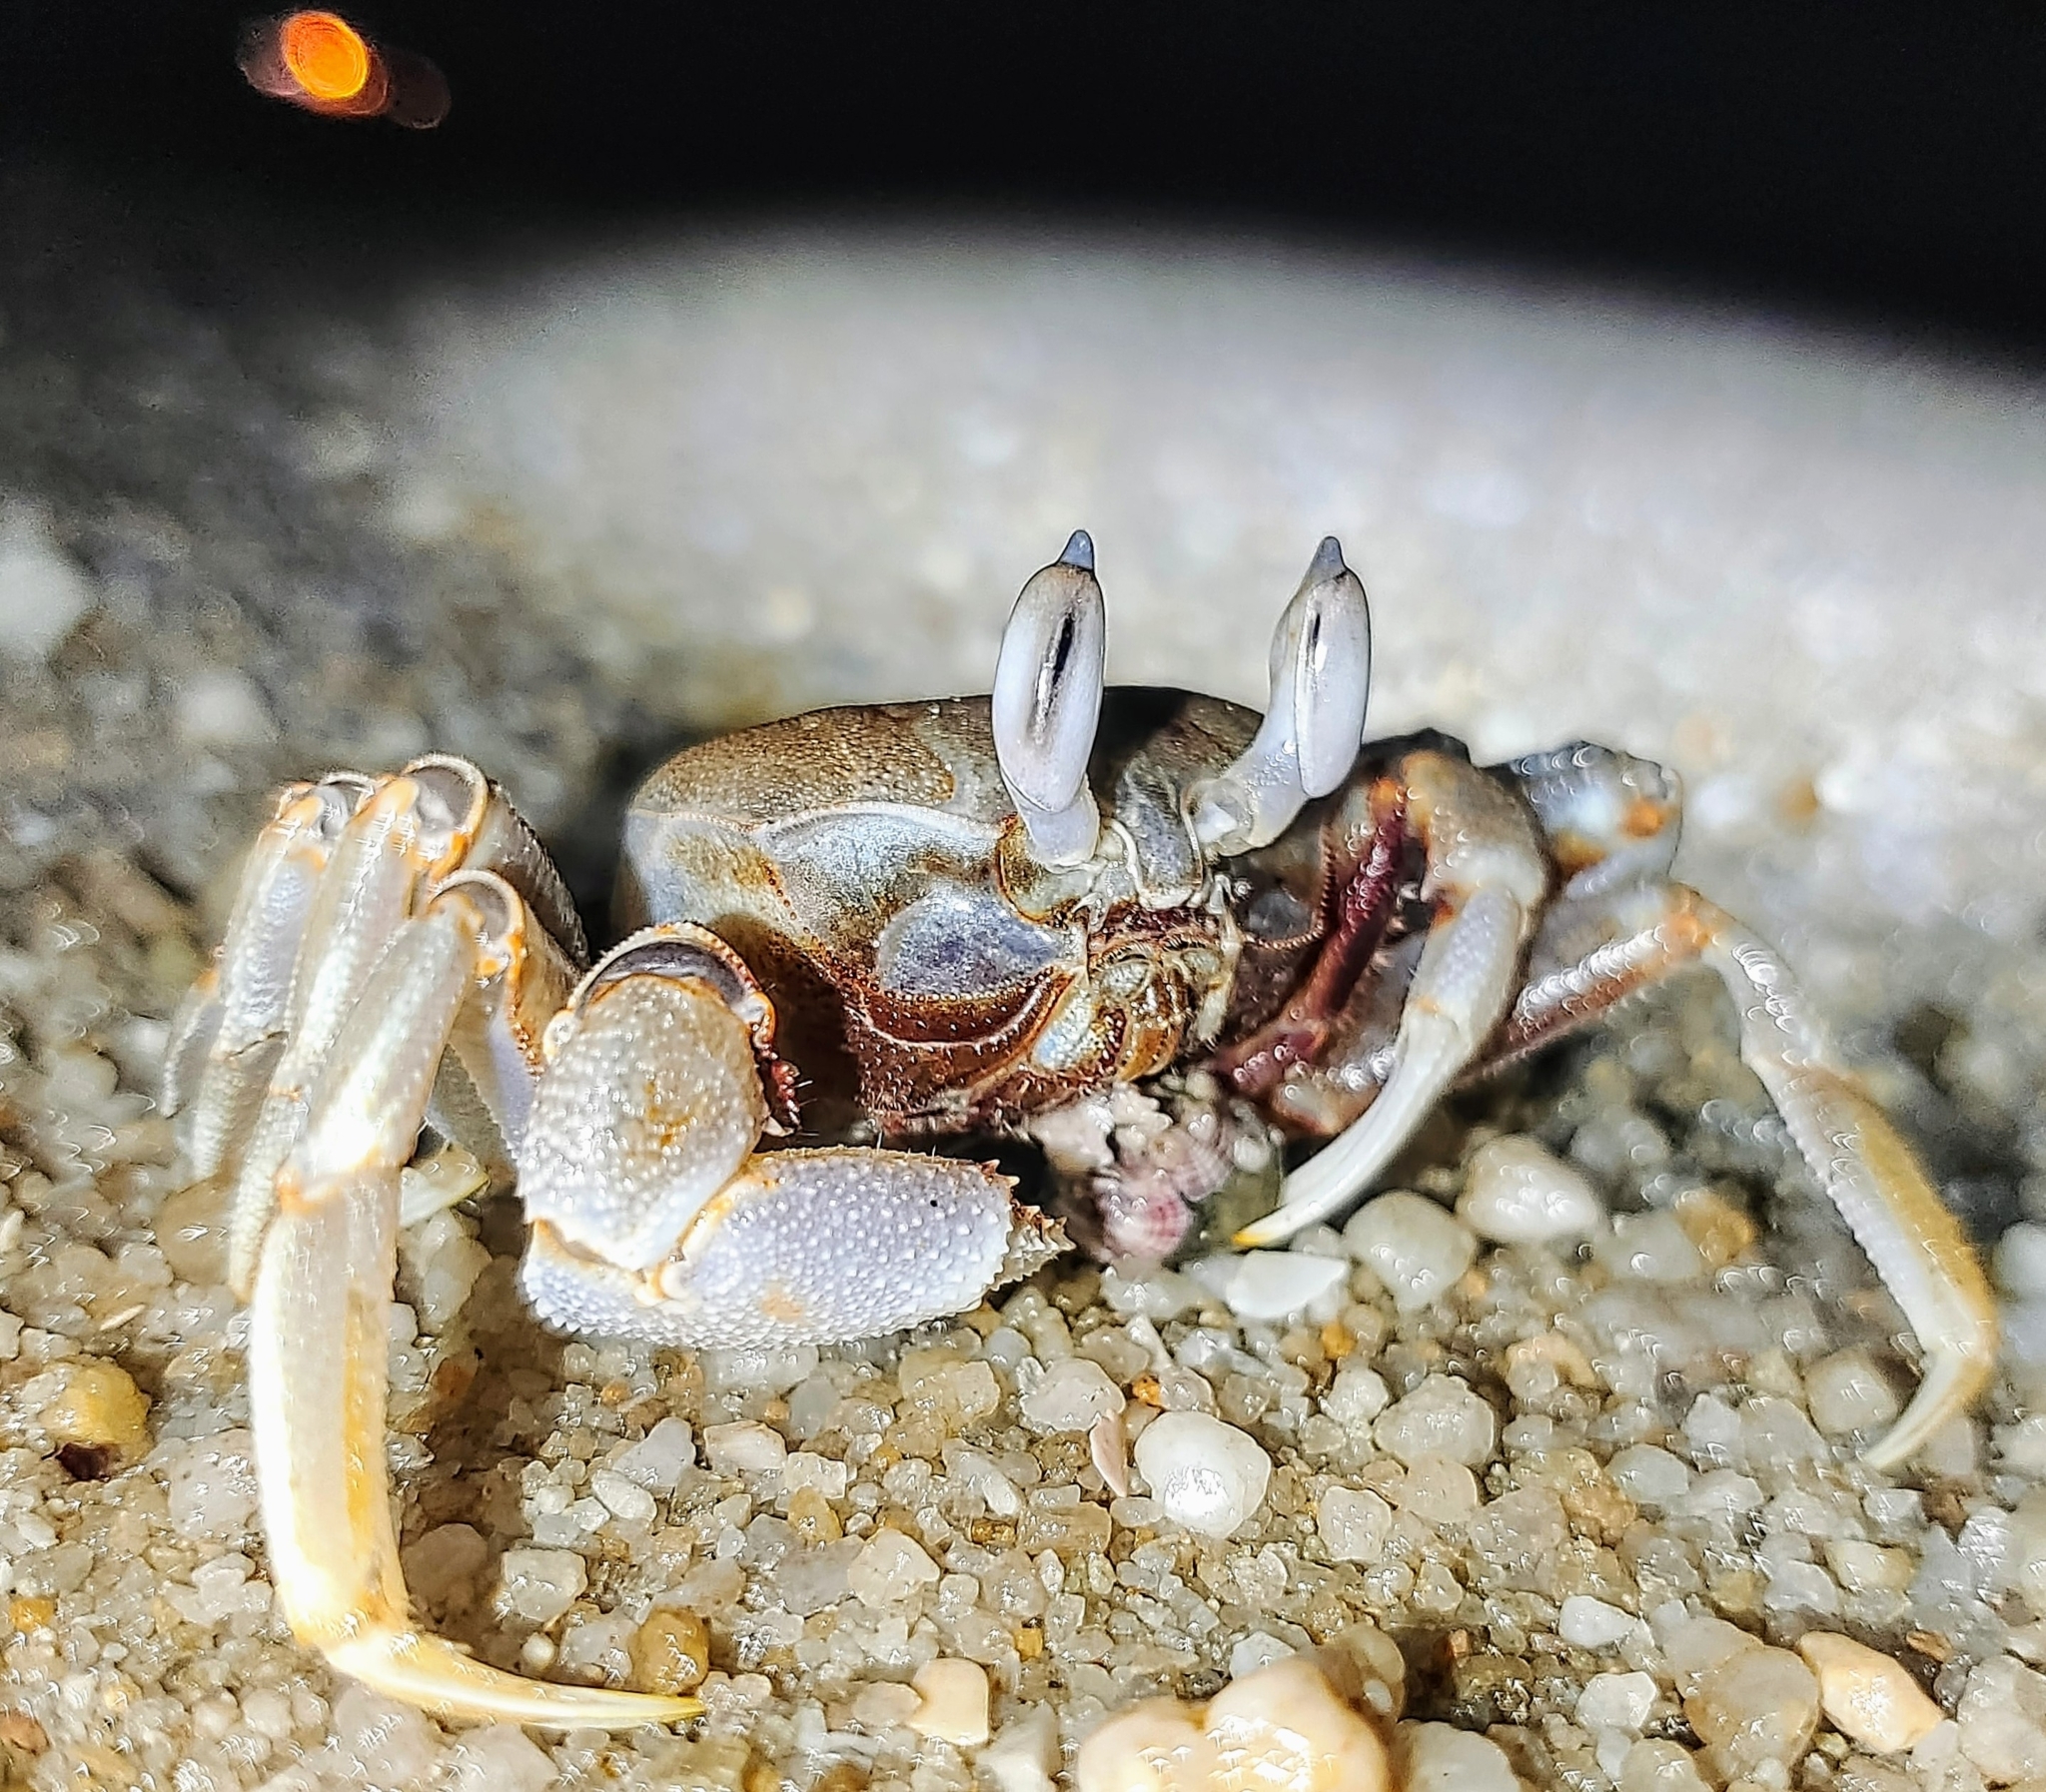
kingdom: Animalia
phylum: Arthropoda
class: Malacostraca
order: Decapoda
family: Ocypodidae
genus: Ocypode
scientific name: Ocypode ceratophthalmus
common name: Indo-pacific ghost crab
